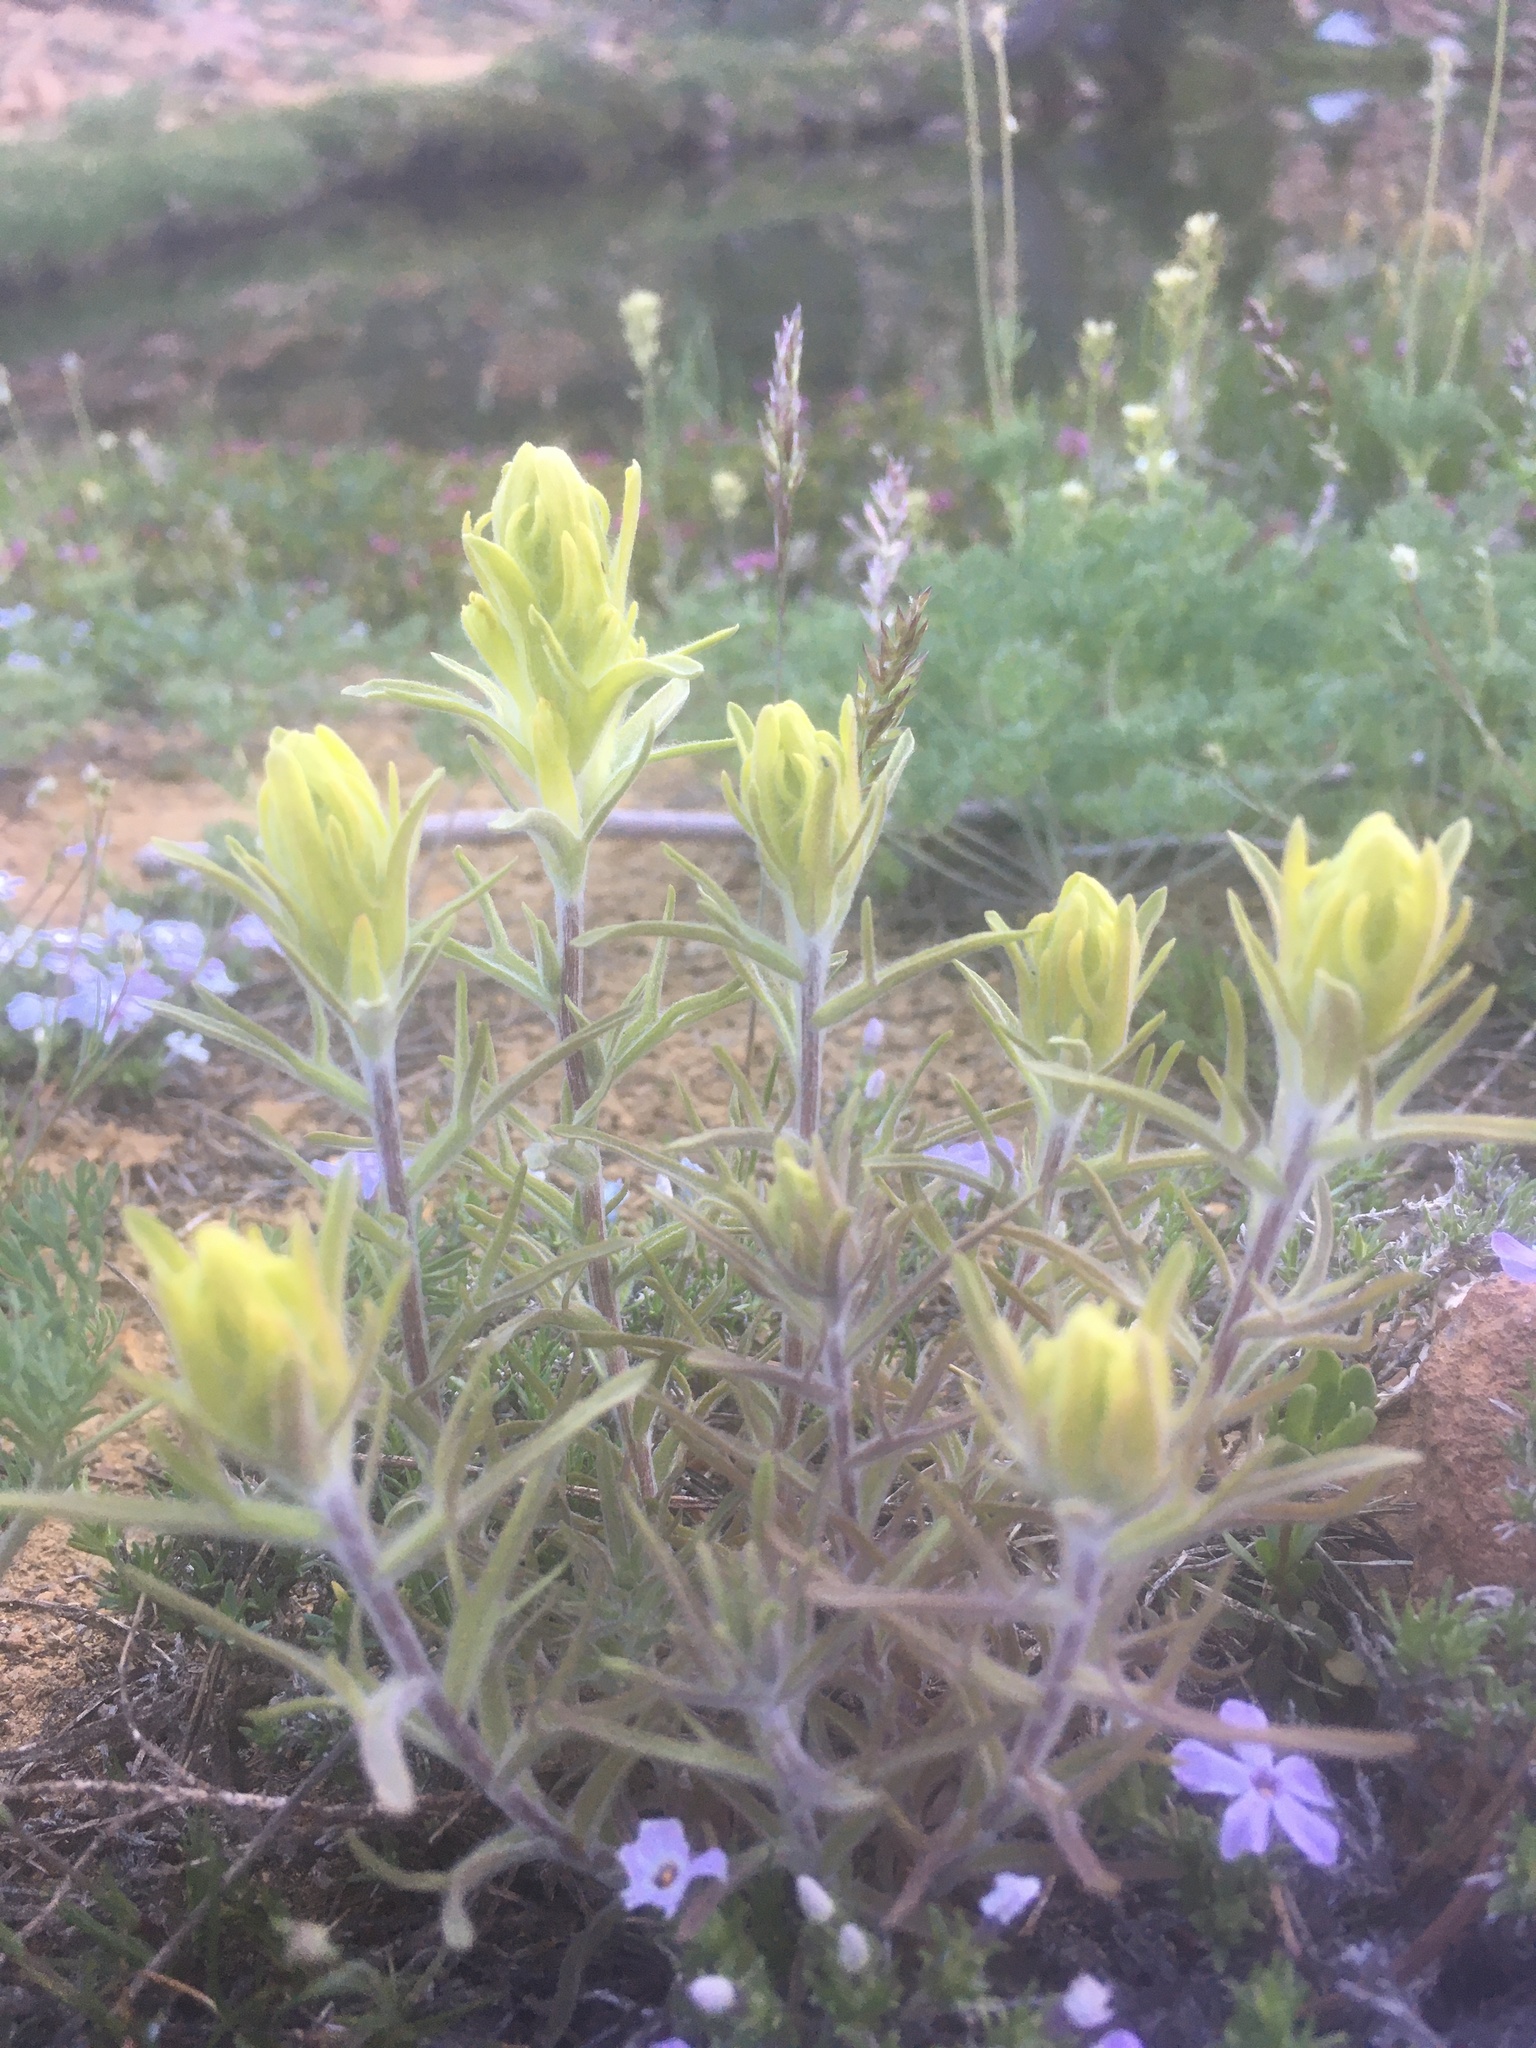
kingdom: Plantae
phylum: Tracheophyta
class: Magnoliopsida
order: Lamiales
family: Orobanchaceae
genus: Castilleja
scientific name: Castilleja arachnoidea
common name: Cobwebby indian paintbrush
